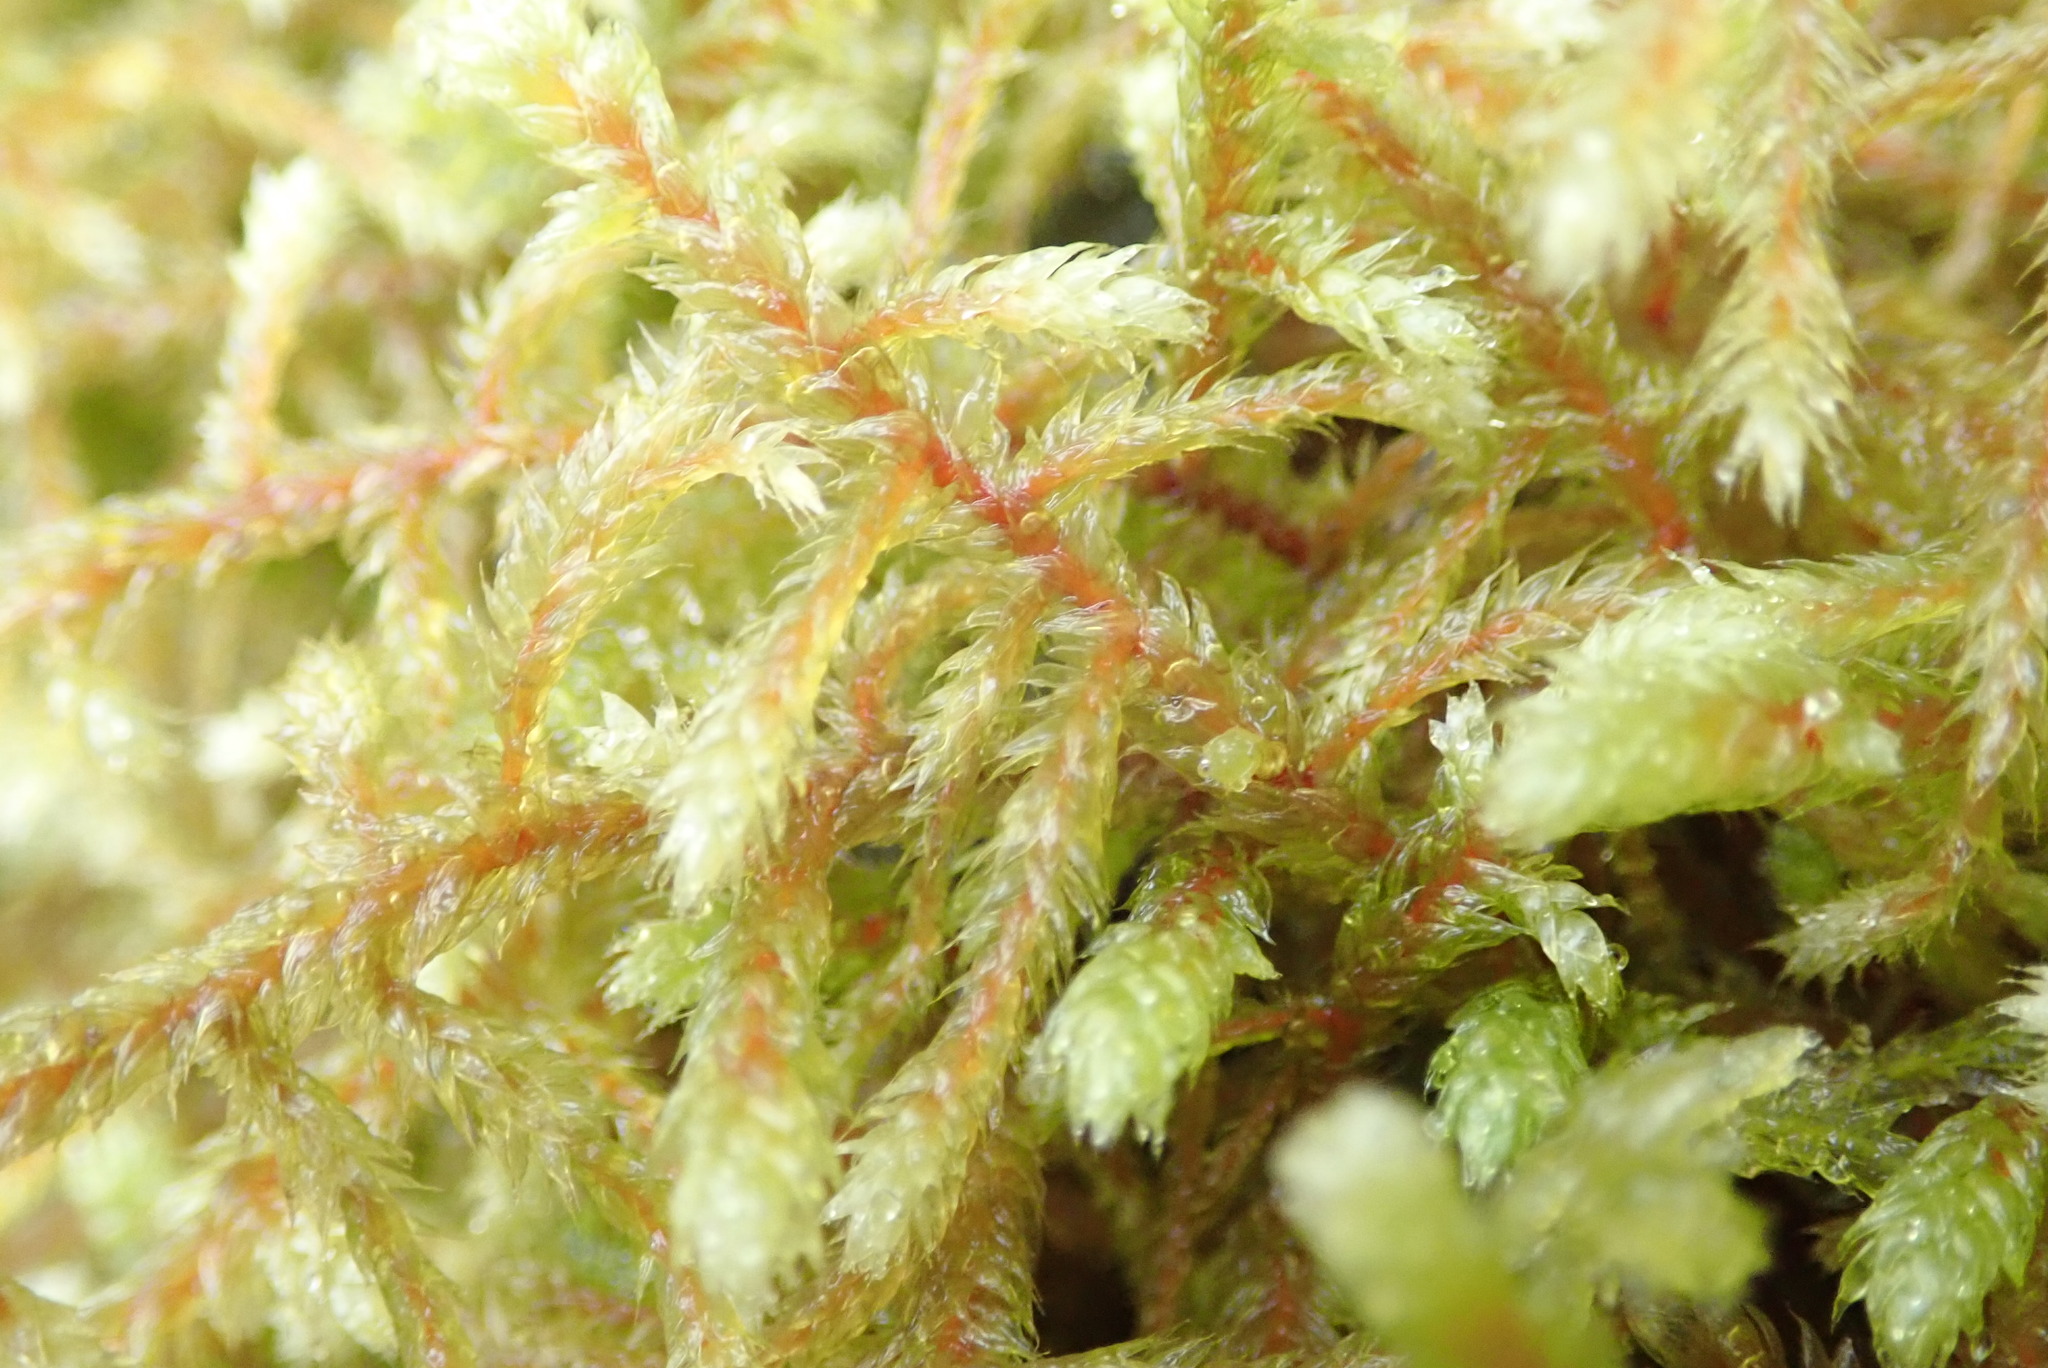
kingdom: Plantae
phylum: Bryophyta
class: Bryopsida
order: Hypnales
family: Antitrichiaceae
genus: Antitrichia
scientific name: Antitrichia curtipendula
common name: Pendulous wing-moss
